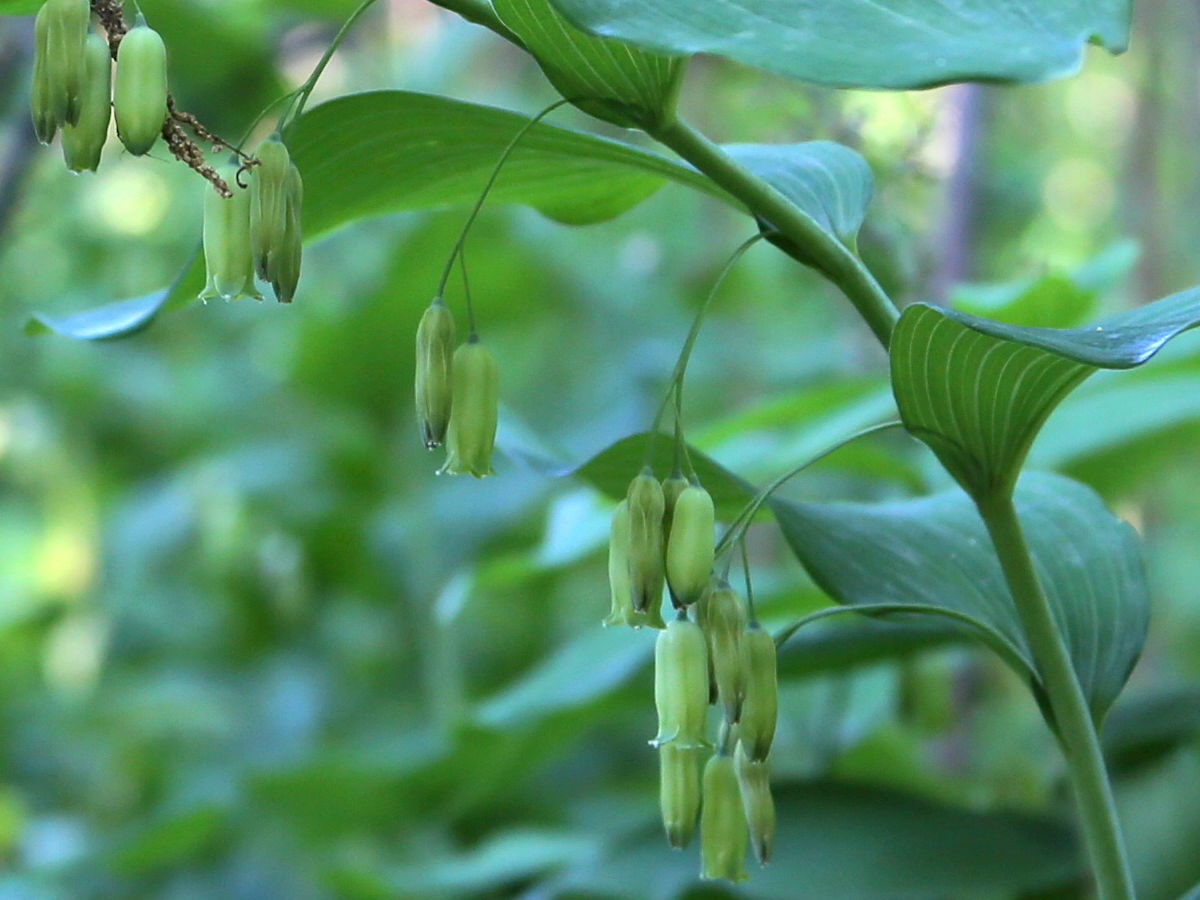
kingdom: Plantae
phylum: Tracheophyta
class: Liliopsida
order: Asparagales
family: Asparagaceae
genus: Polygonatum
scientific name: Polygonatum biflorum
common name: American solomon's-seal
